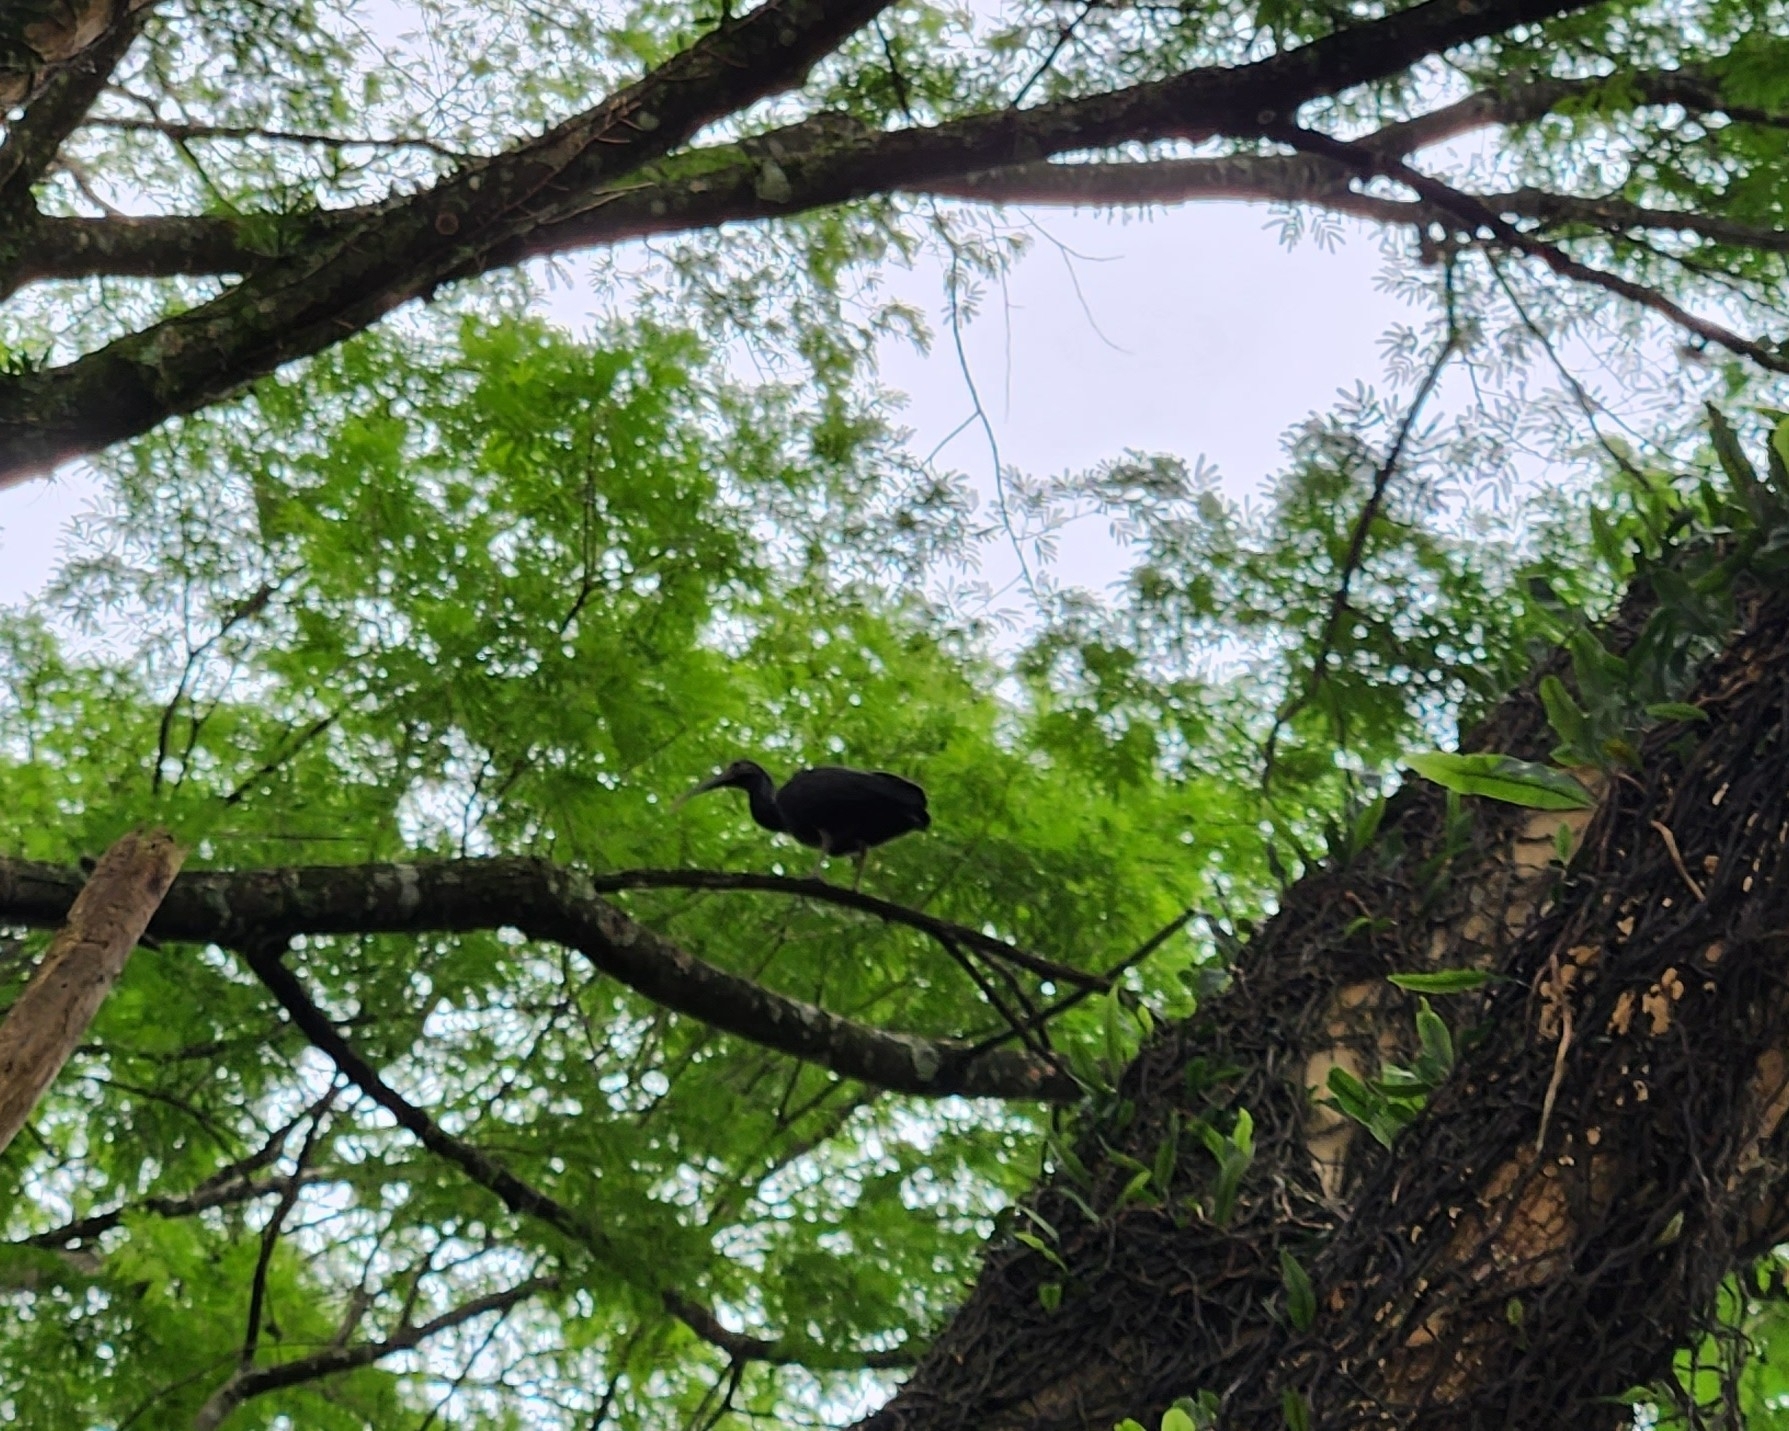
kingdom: Animalia
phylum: Chordata
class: Aves
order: Pelecaniformes
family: Threskiornithidae
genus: Mesembrinibis
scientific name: Mesembrinibis cayennensis
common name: Green ibis
